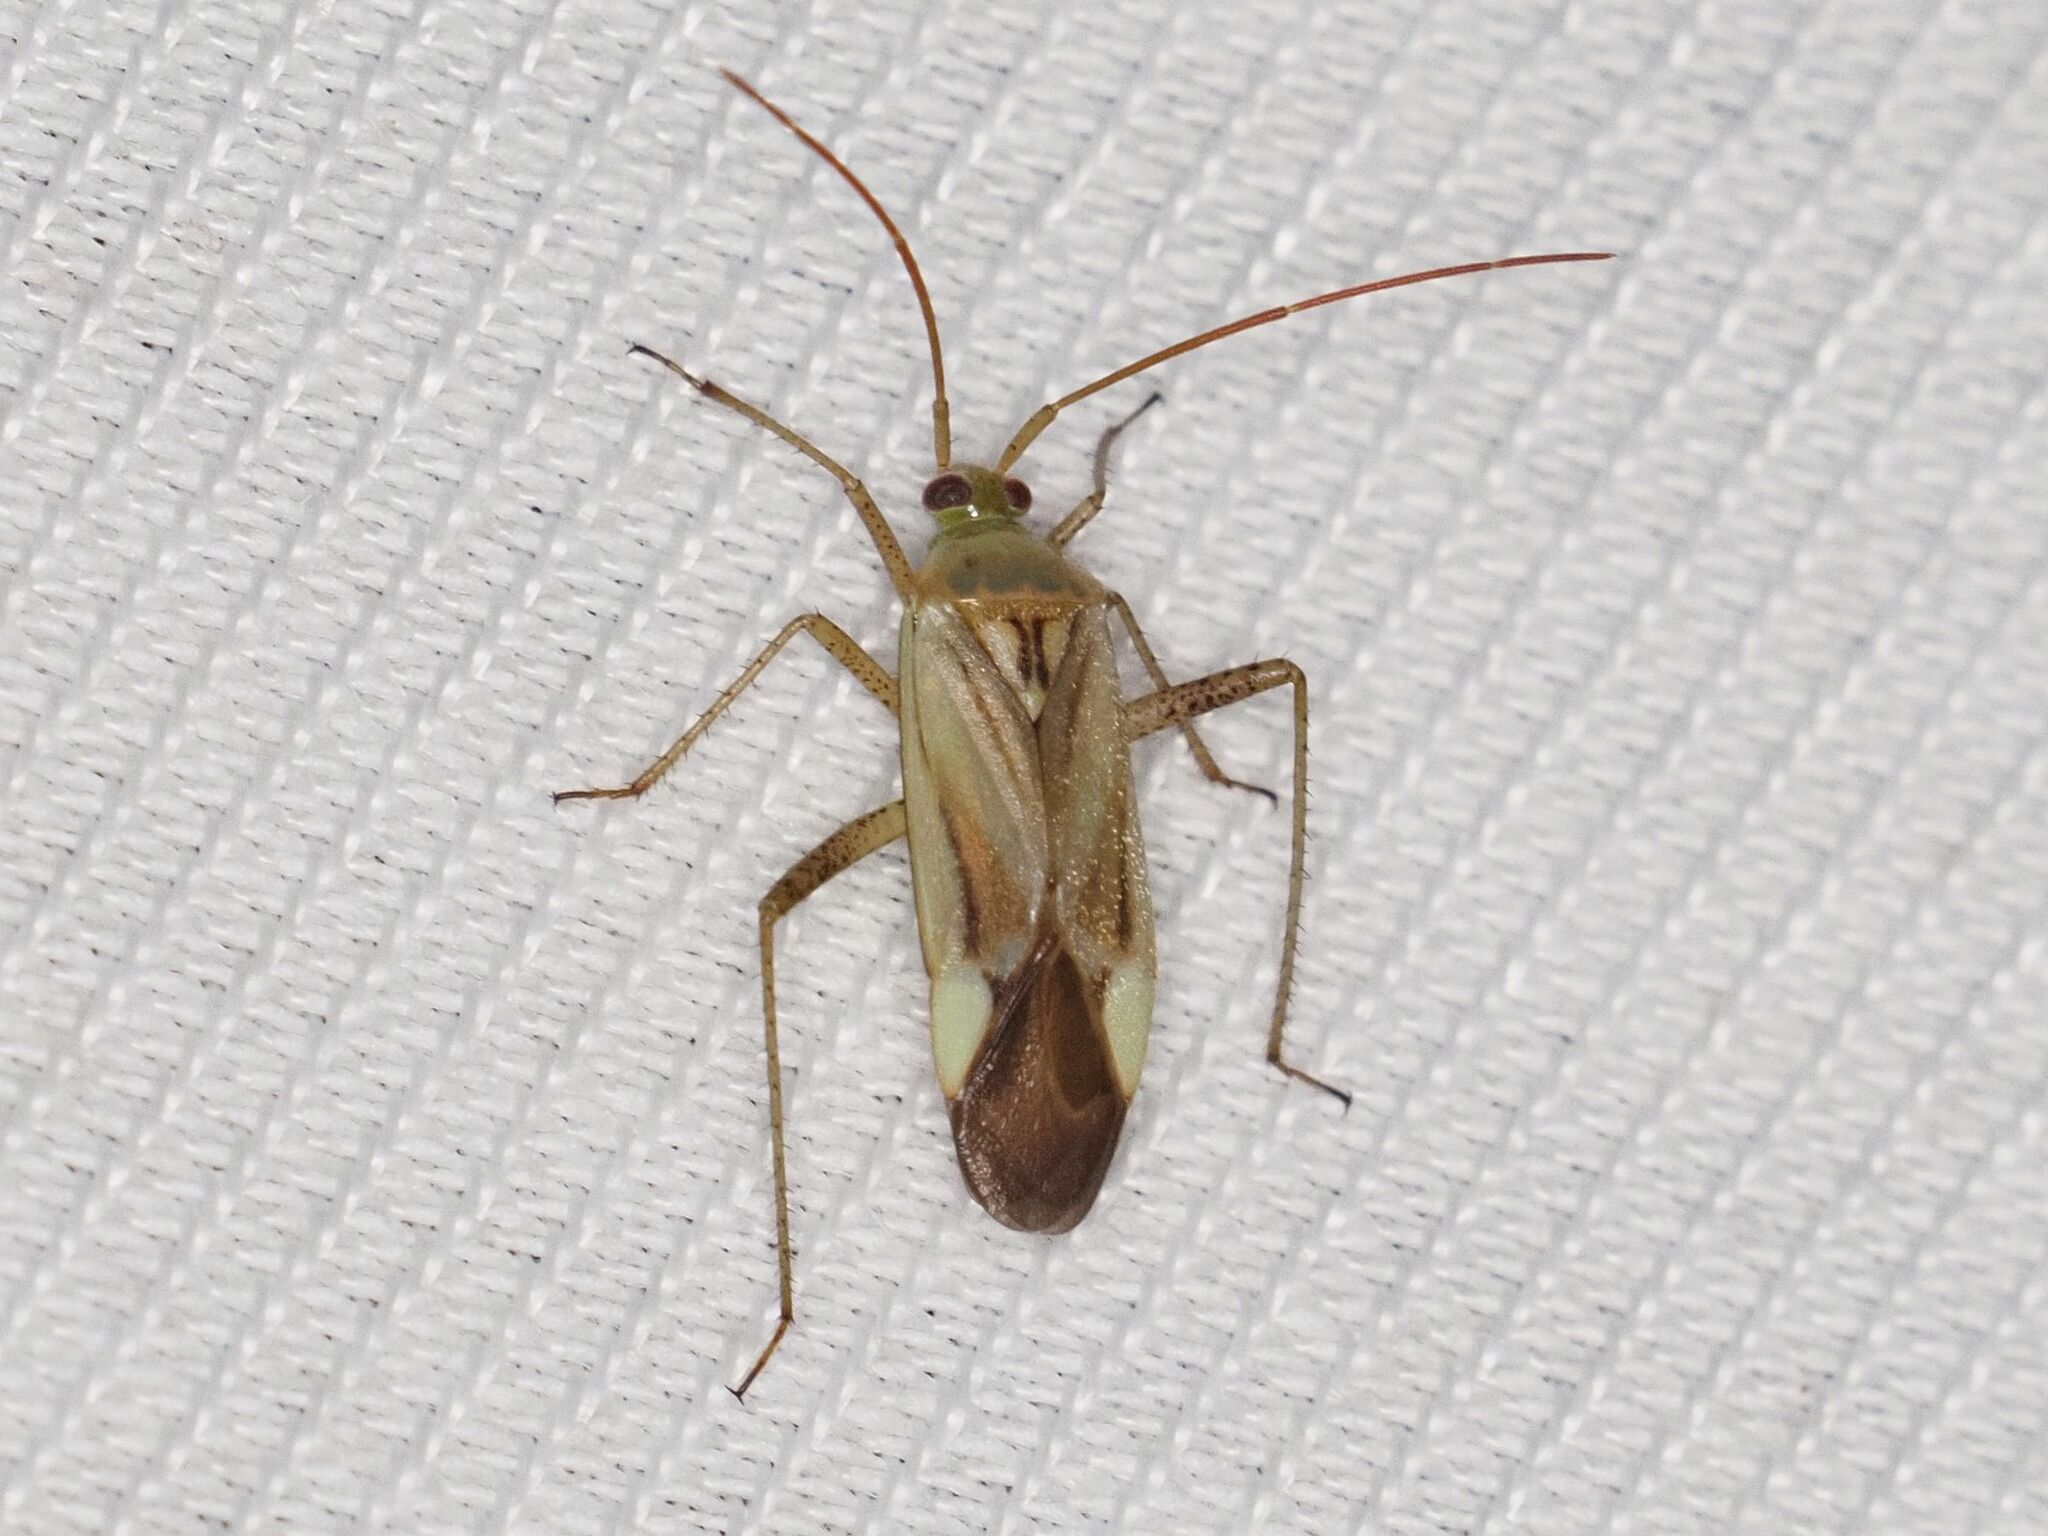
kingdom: Animalia
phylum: Arthropoda
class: Insecta
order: Hemiptera
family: Miridae
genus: Adelphocoris
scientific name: Adelphocoris lineolatus
